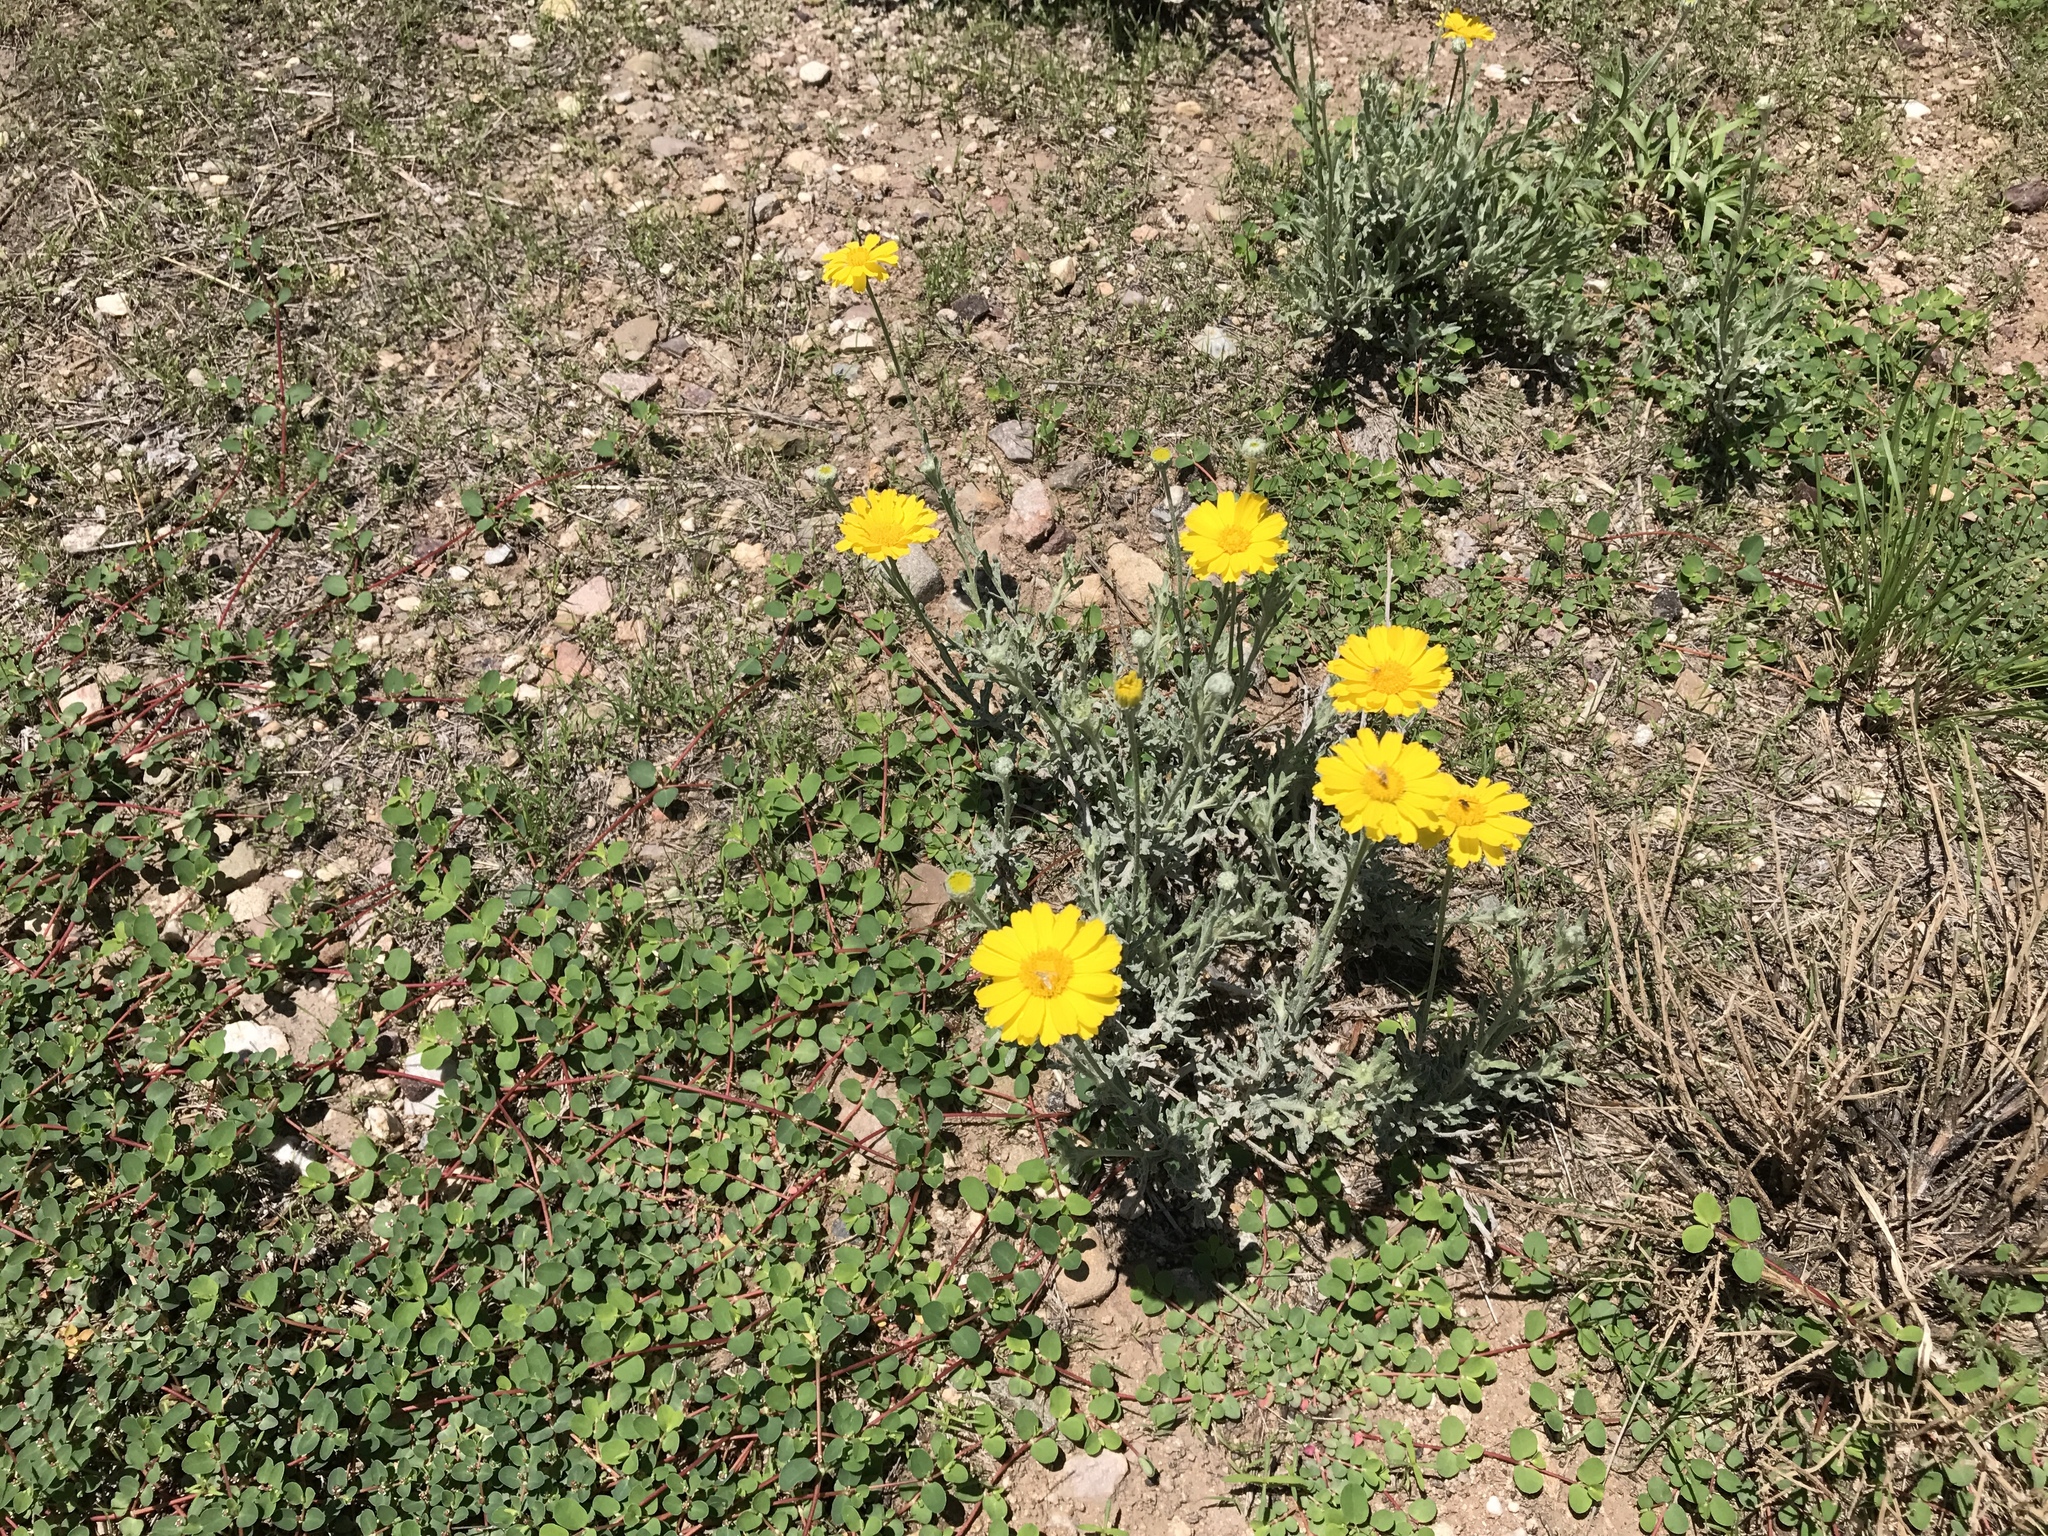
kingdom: Plantae
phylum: Tracheophyta
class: Magnoliopsida
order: Asterales
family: Asteraceae
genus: Baileya
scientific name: Baileya multiradiata
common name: Desert-marigold
